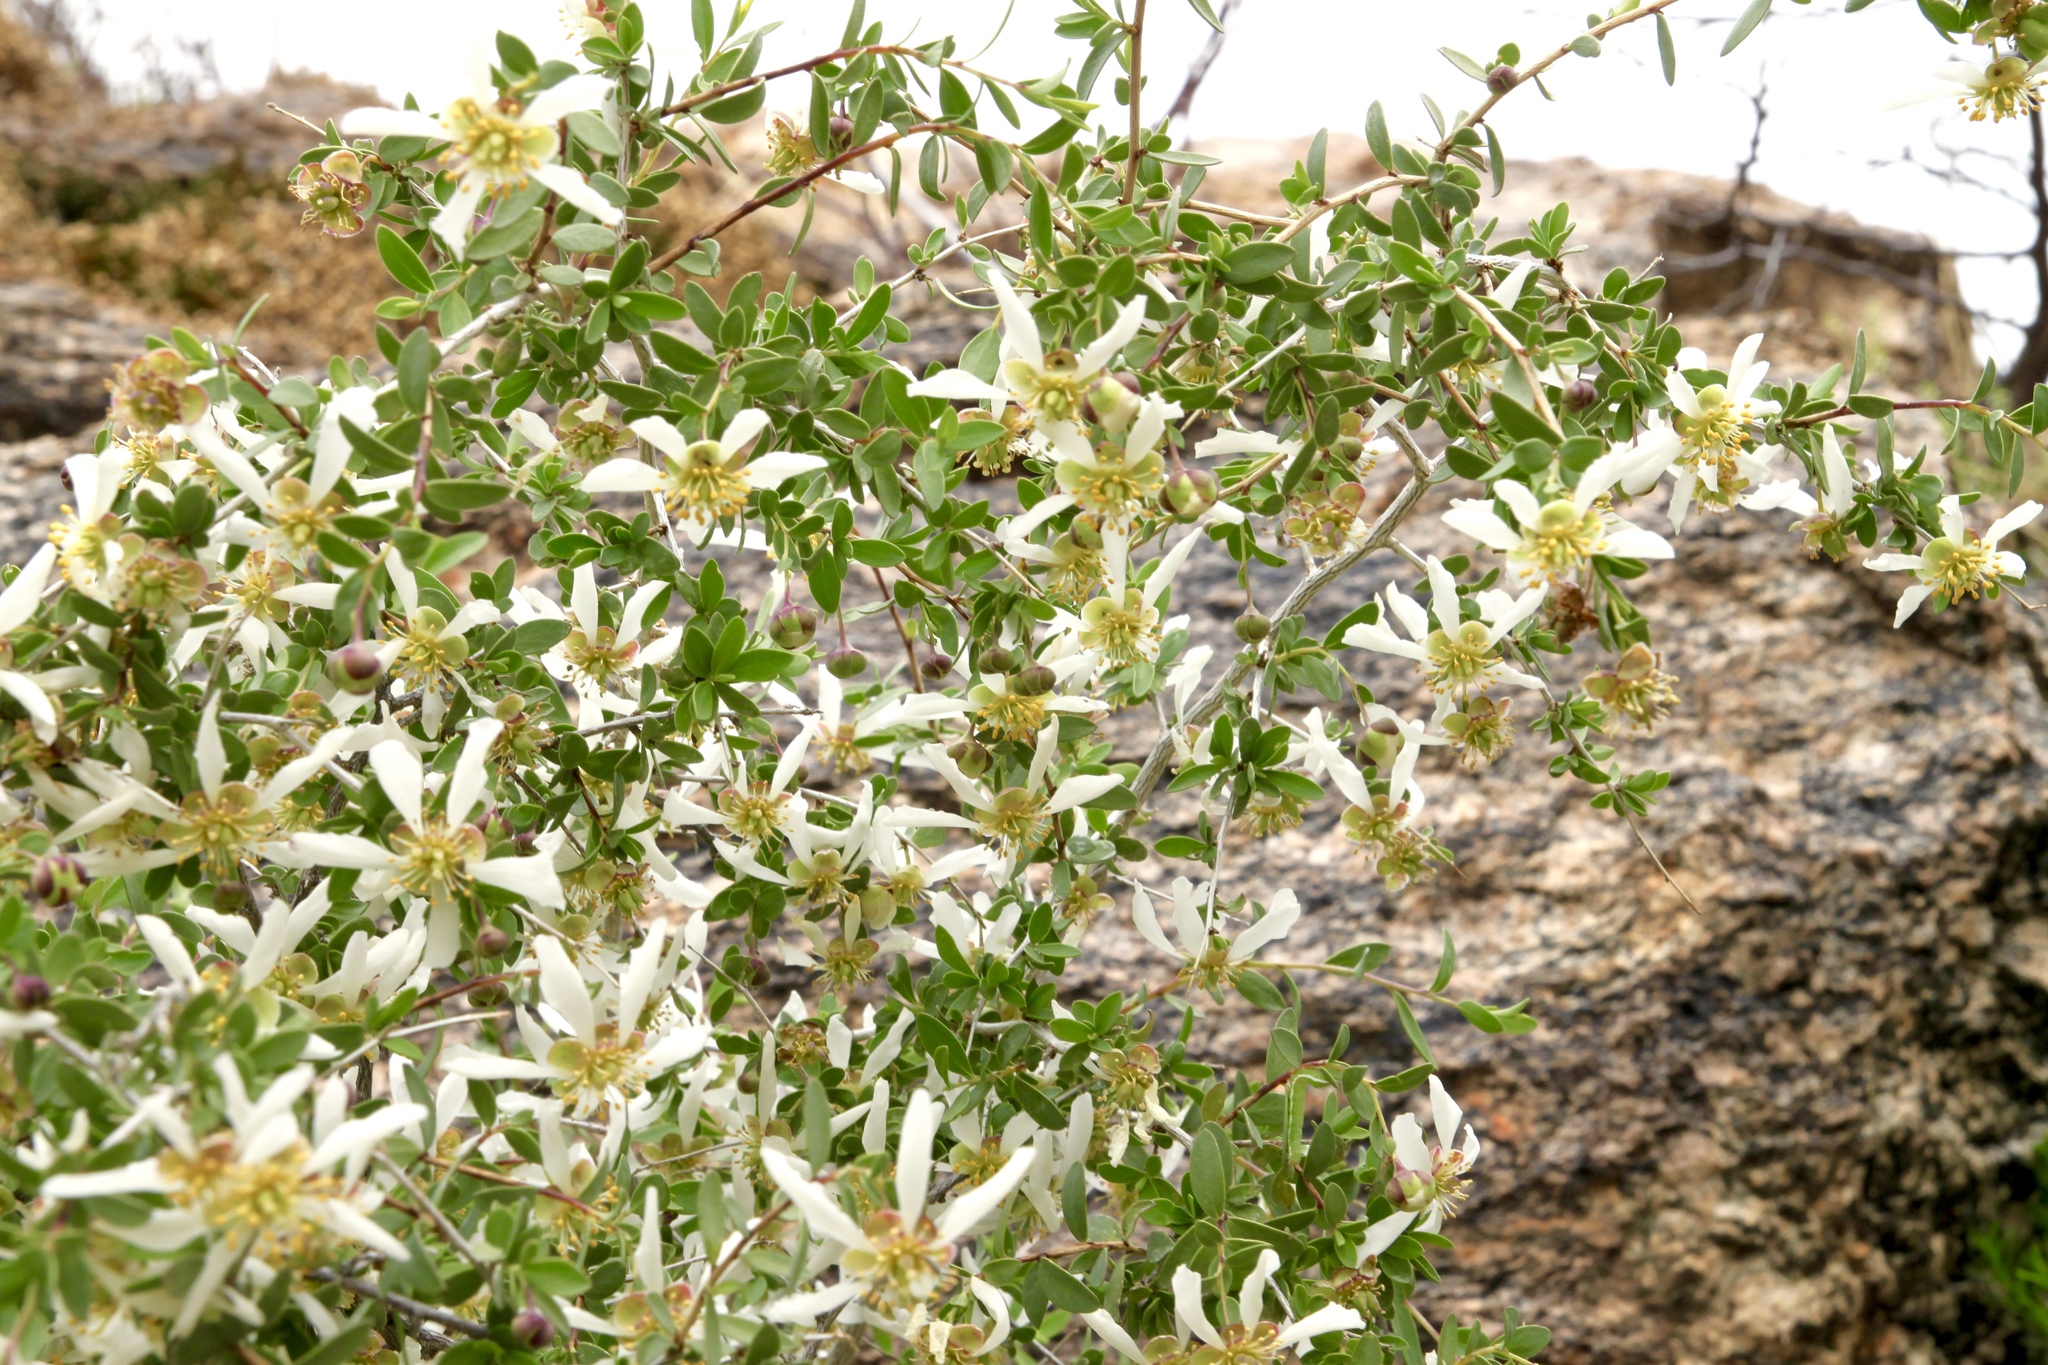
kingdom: Plantae
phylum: Tracheophyta
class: Magnoliopsida
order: Crossosomatales
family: Crossosomataceae
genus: Crossosoma
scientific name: Crossosoma bigelovii
